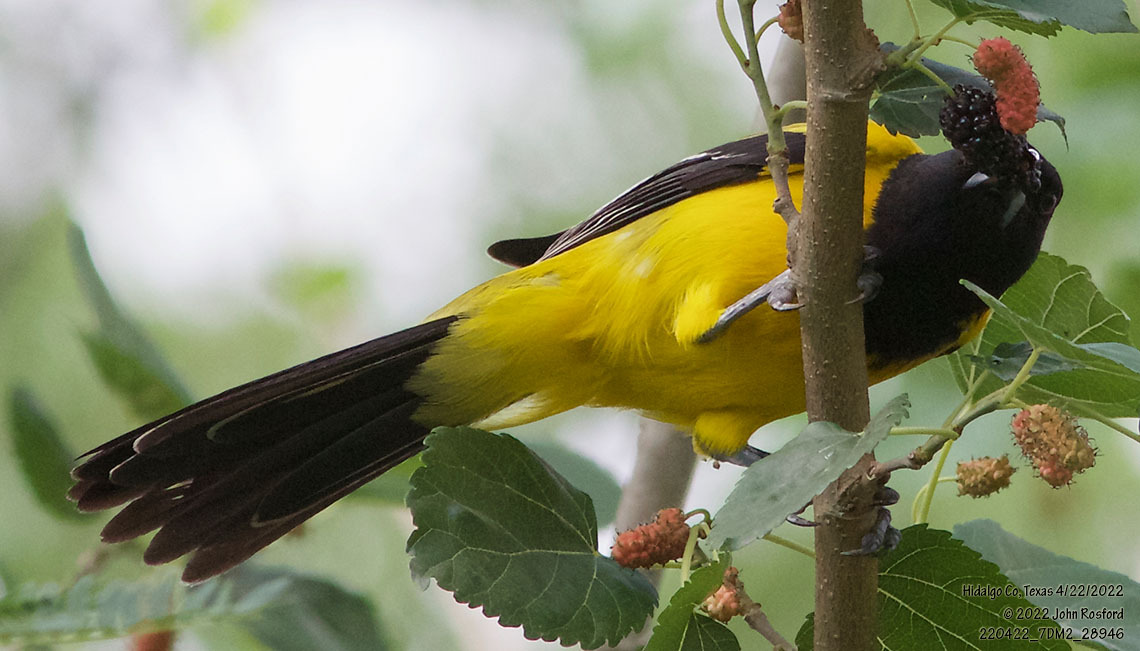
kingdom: Animalia
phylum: Chordata
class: Aves
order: Passeriformes
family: Icteridae
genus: Icterus
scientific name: Icterus graduacauda
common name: Audubon's oriole
